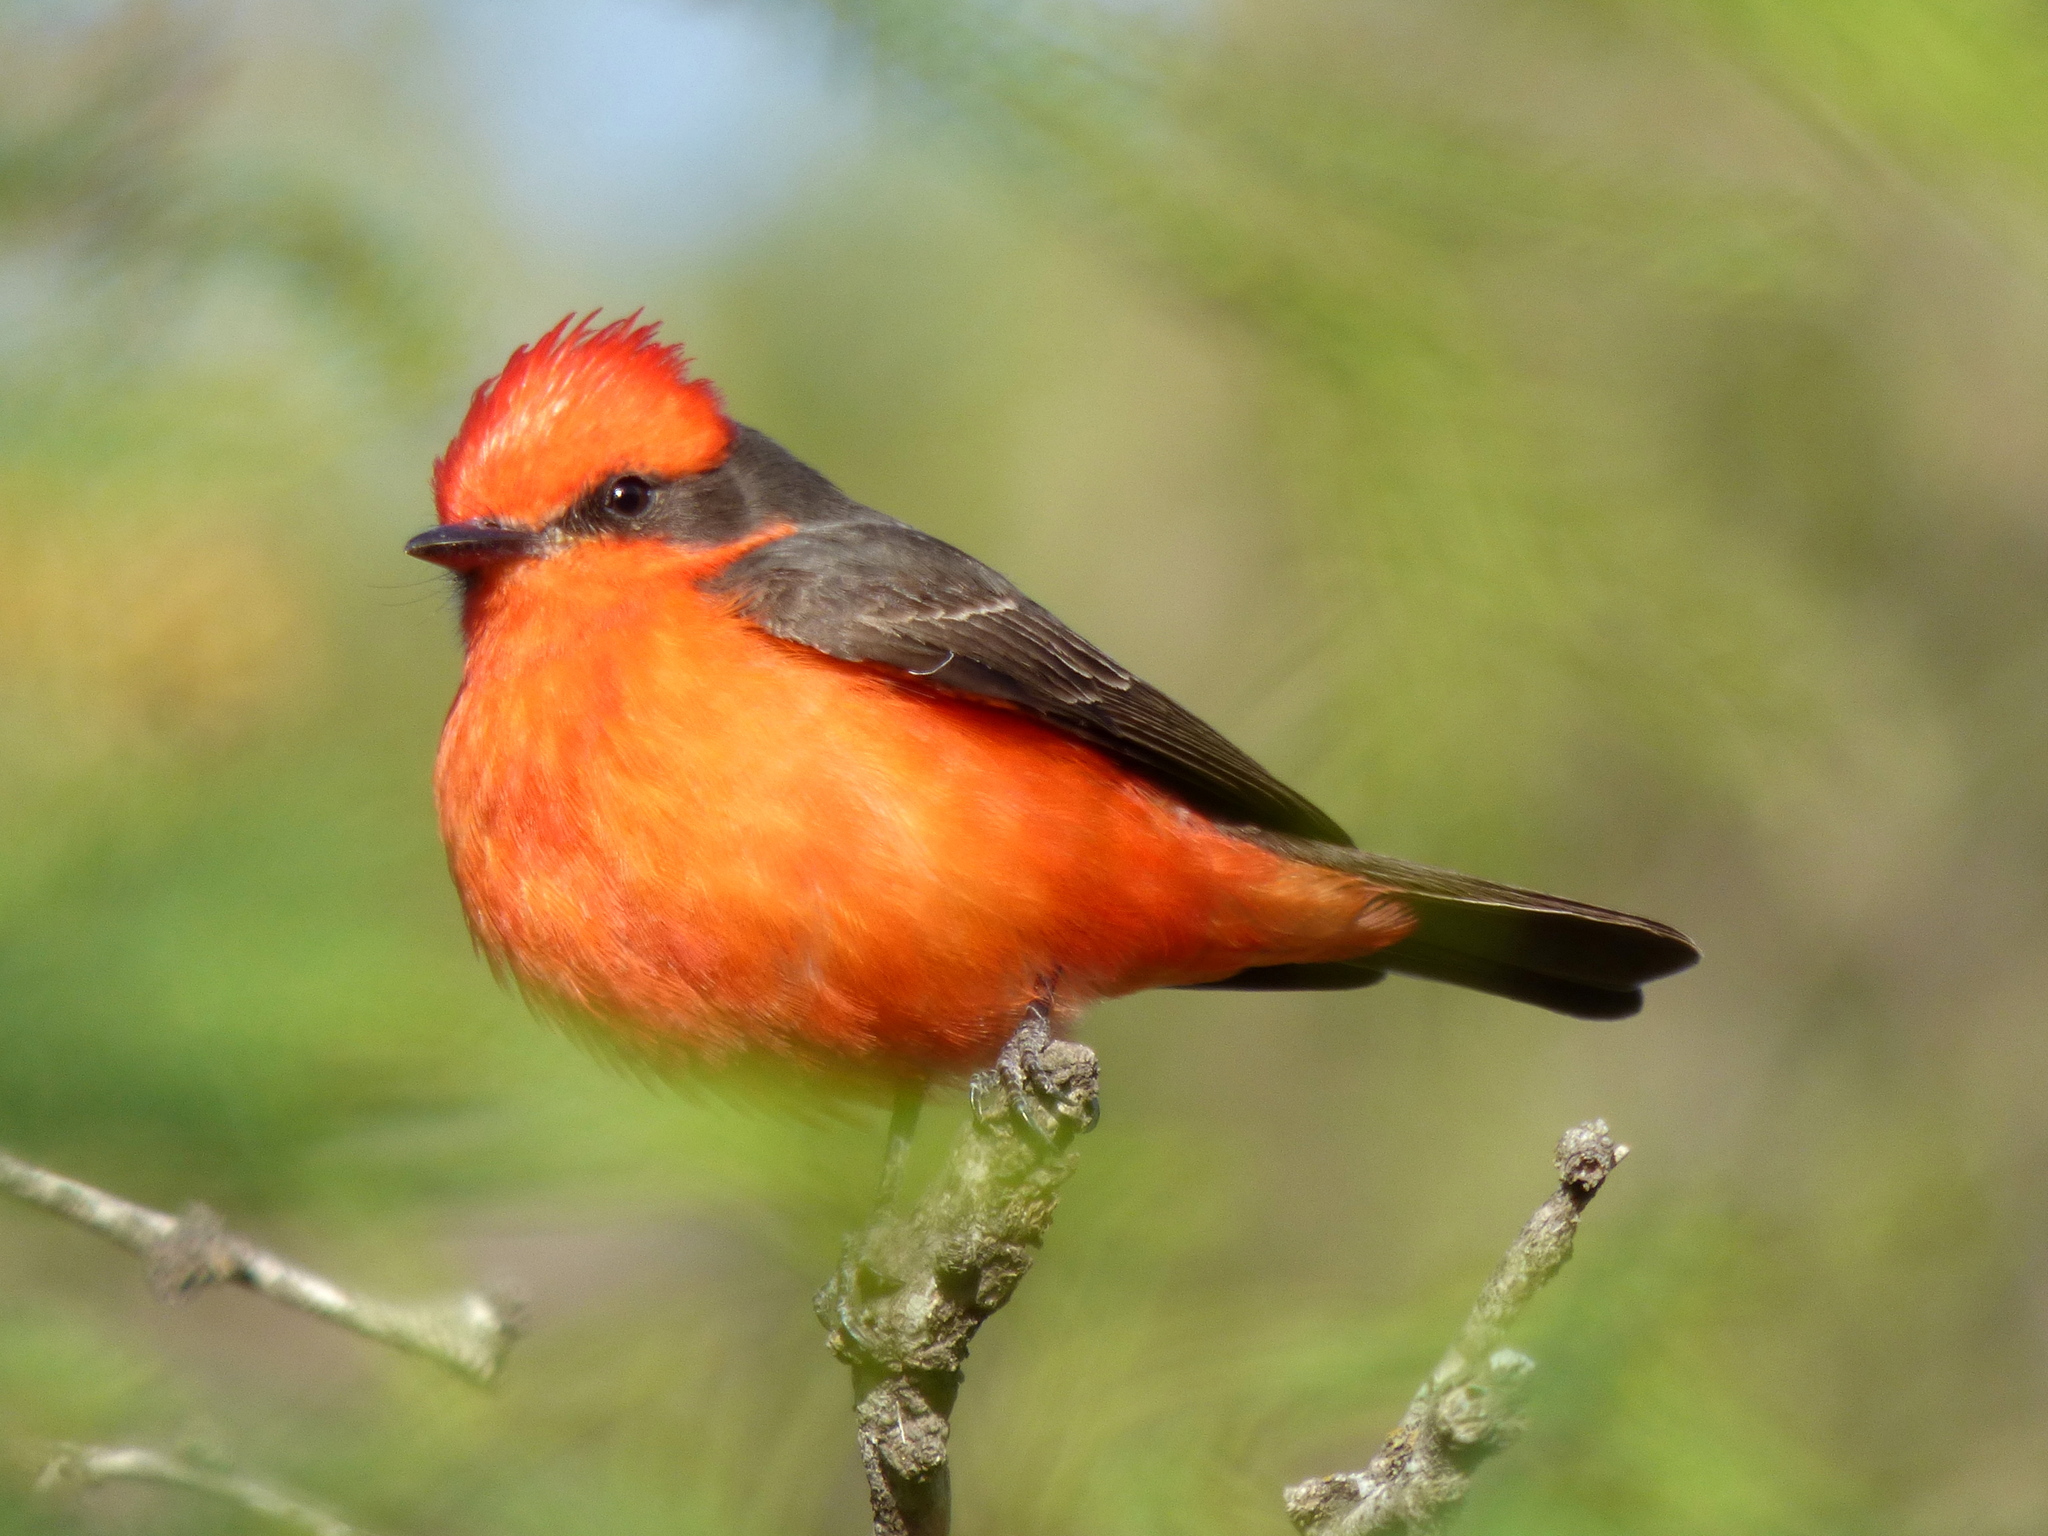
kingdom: Animalia
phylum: Chordata
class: Aves
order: Passeriformes
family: Tyrannidae
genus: Pyrocephalus
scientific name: Pyrocephalus rubinus
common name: Vermilion flycatcher
